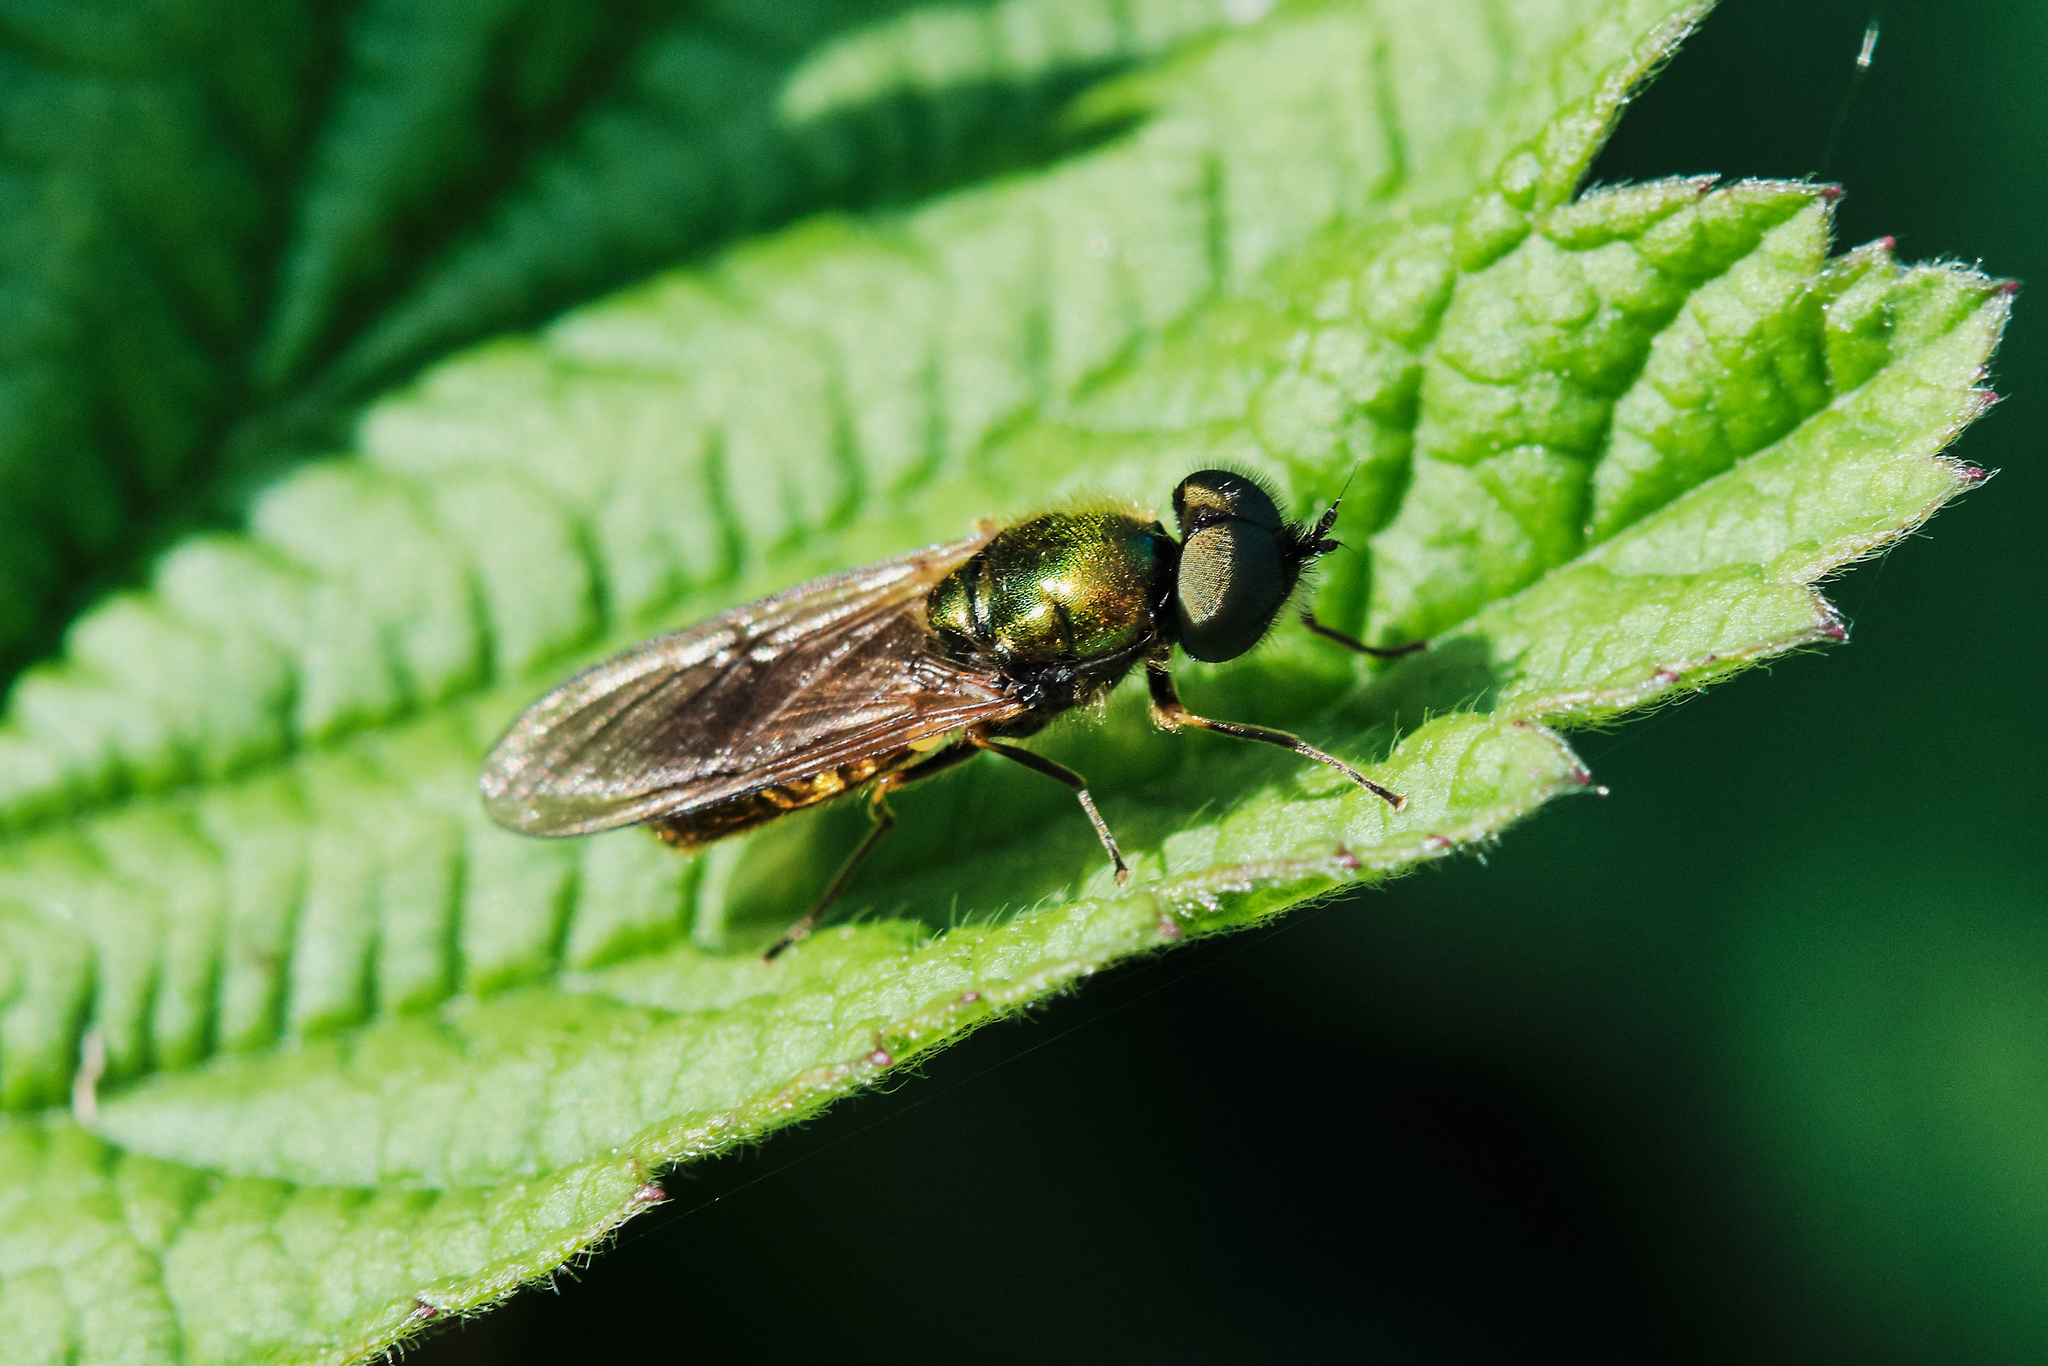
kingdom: Animalia
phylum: Arthropoda
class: Insecta
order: Diptera
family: Stratiomyidae
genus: Chloromyia
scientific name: Chloromyia formosa
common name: Soldier fly
